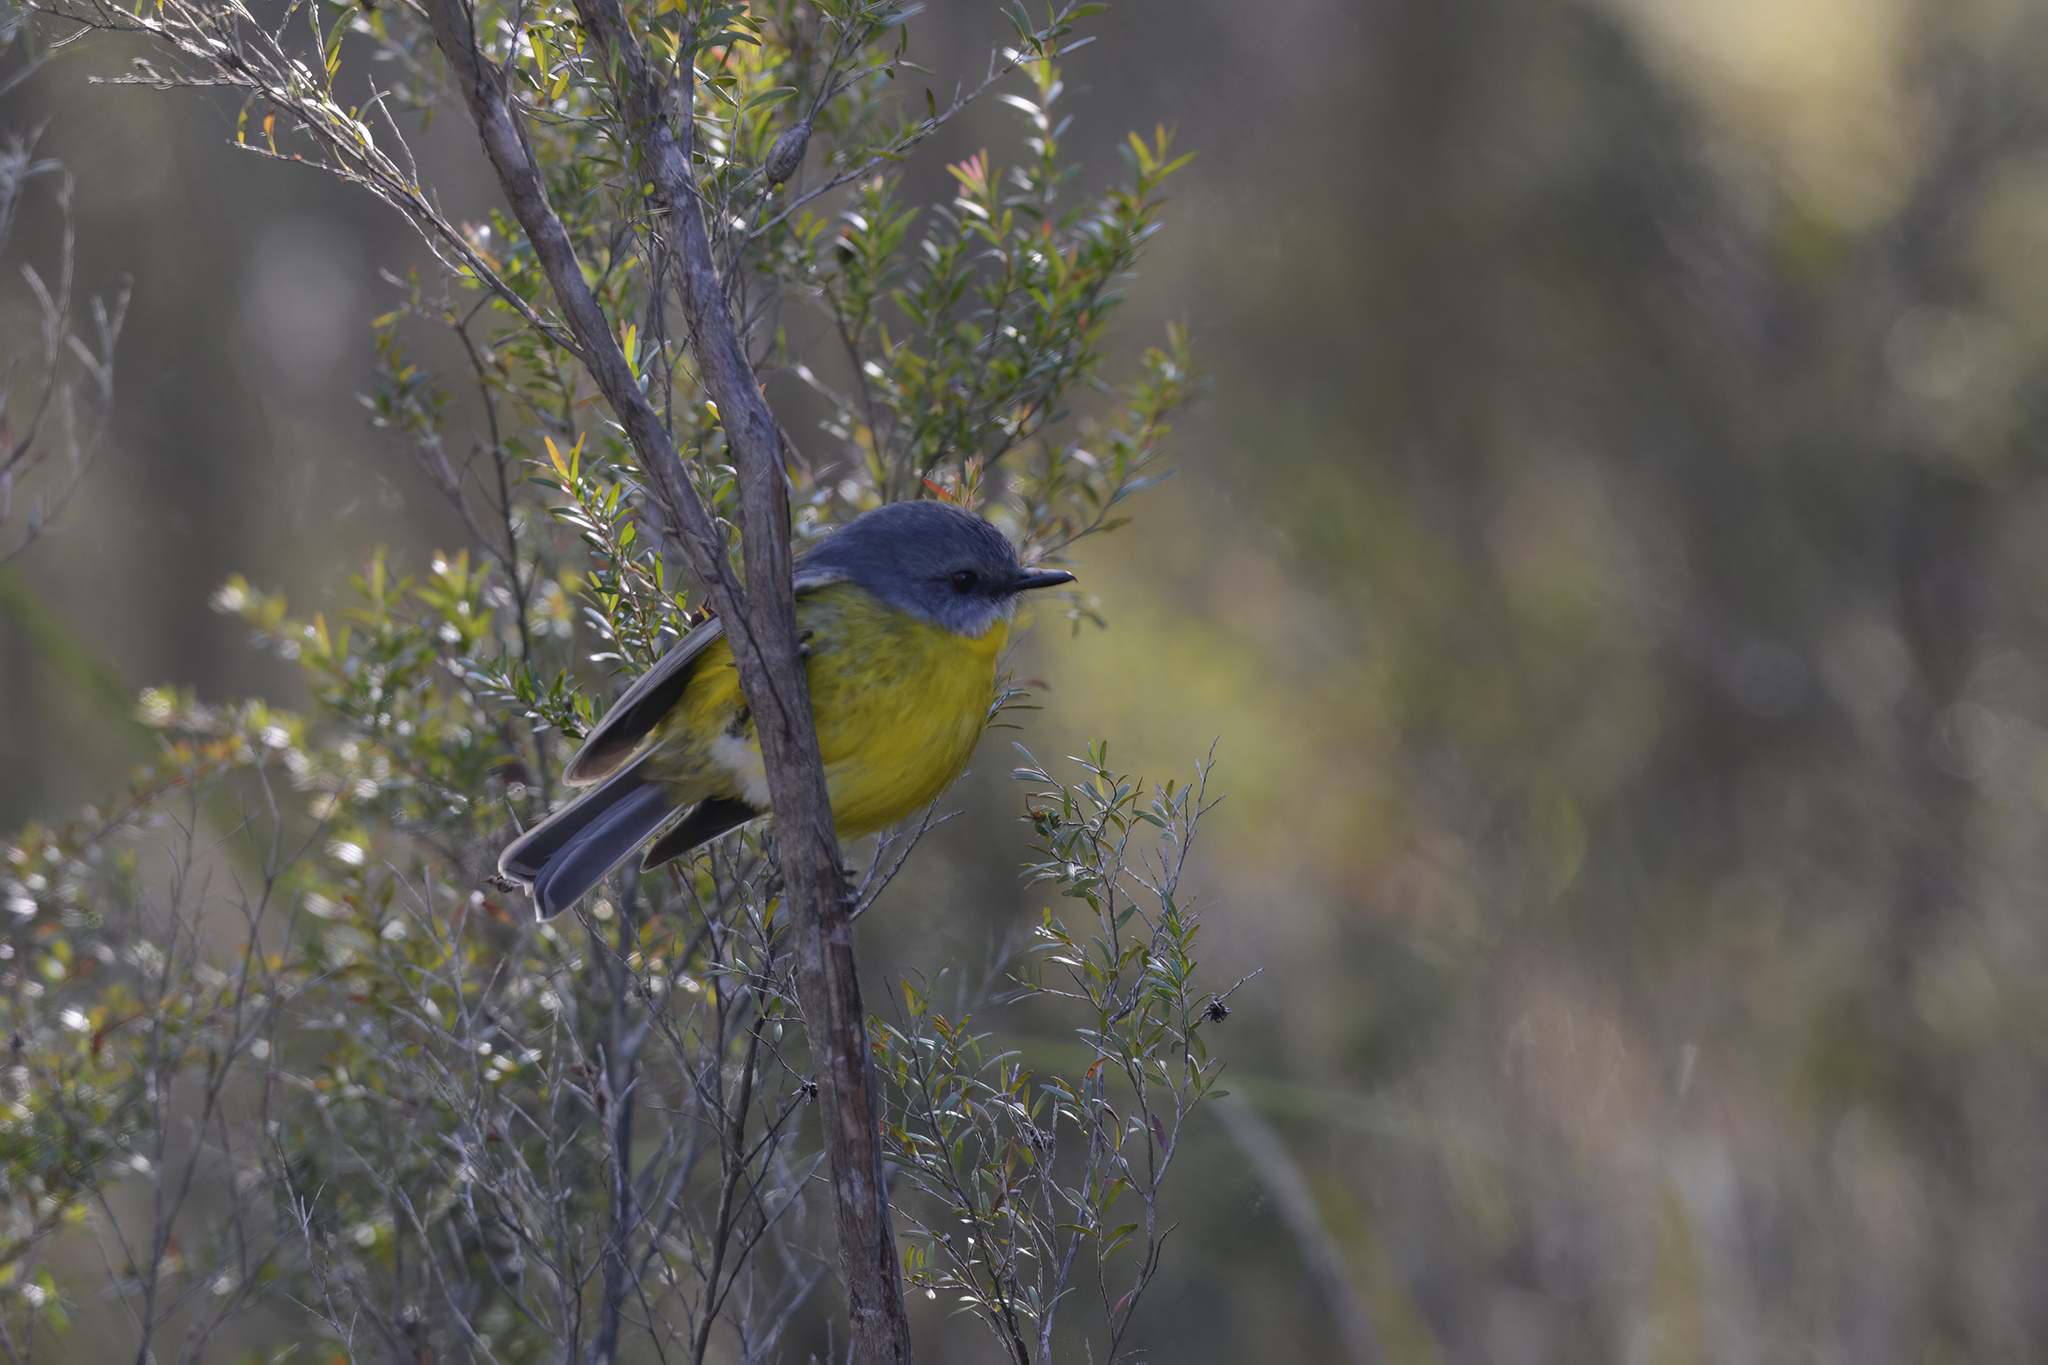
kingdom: Animalia
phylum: Chordata
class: Aves
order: Passeriformes
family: Petroicidae
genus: Eopsaltria
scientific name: Eopsaltria australis
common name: Eastern yellow robin
